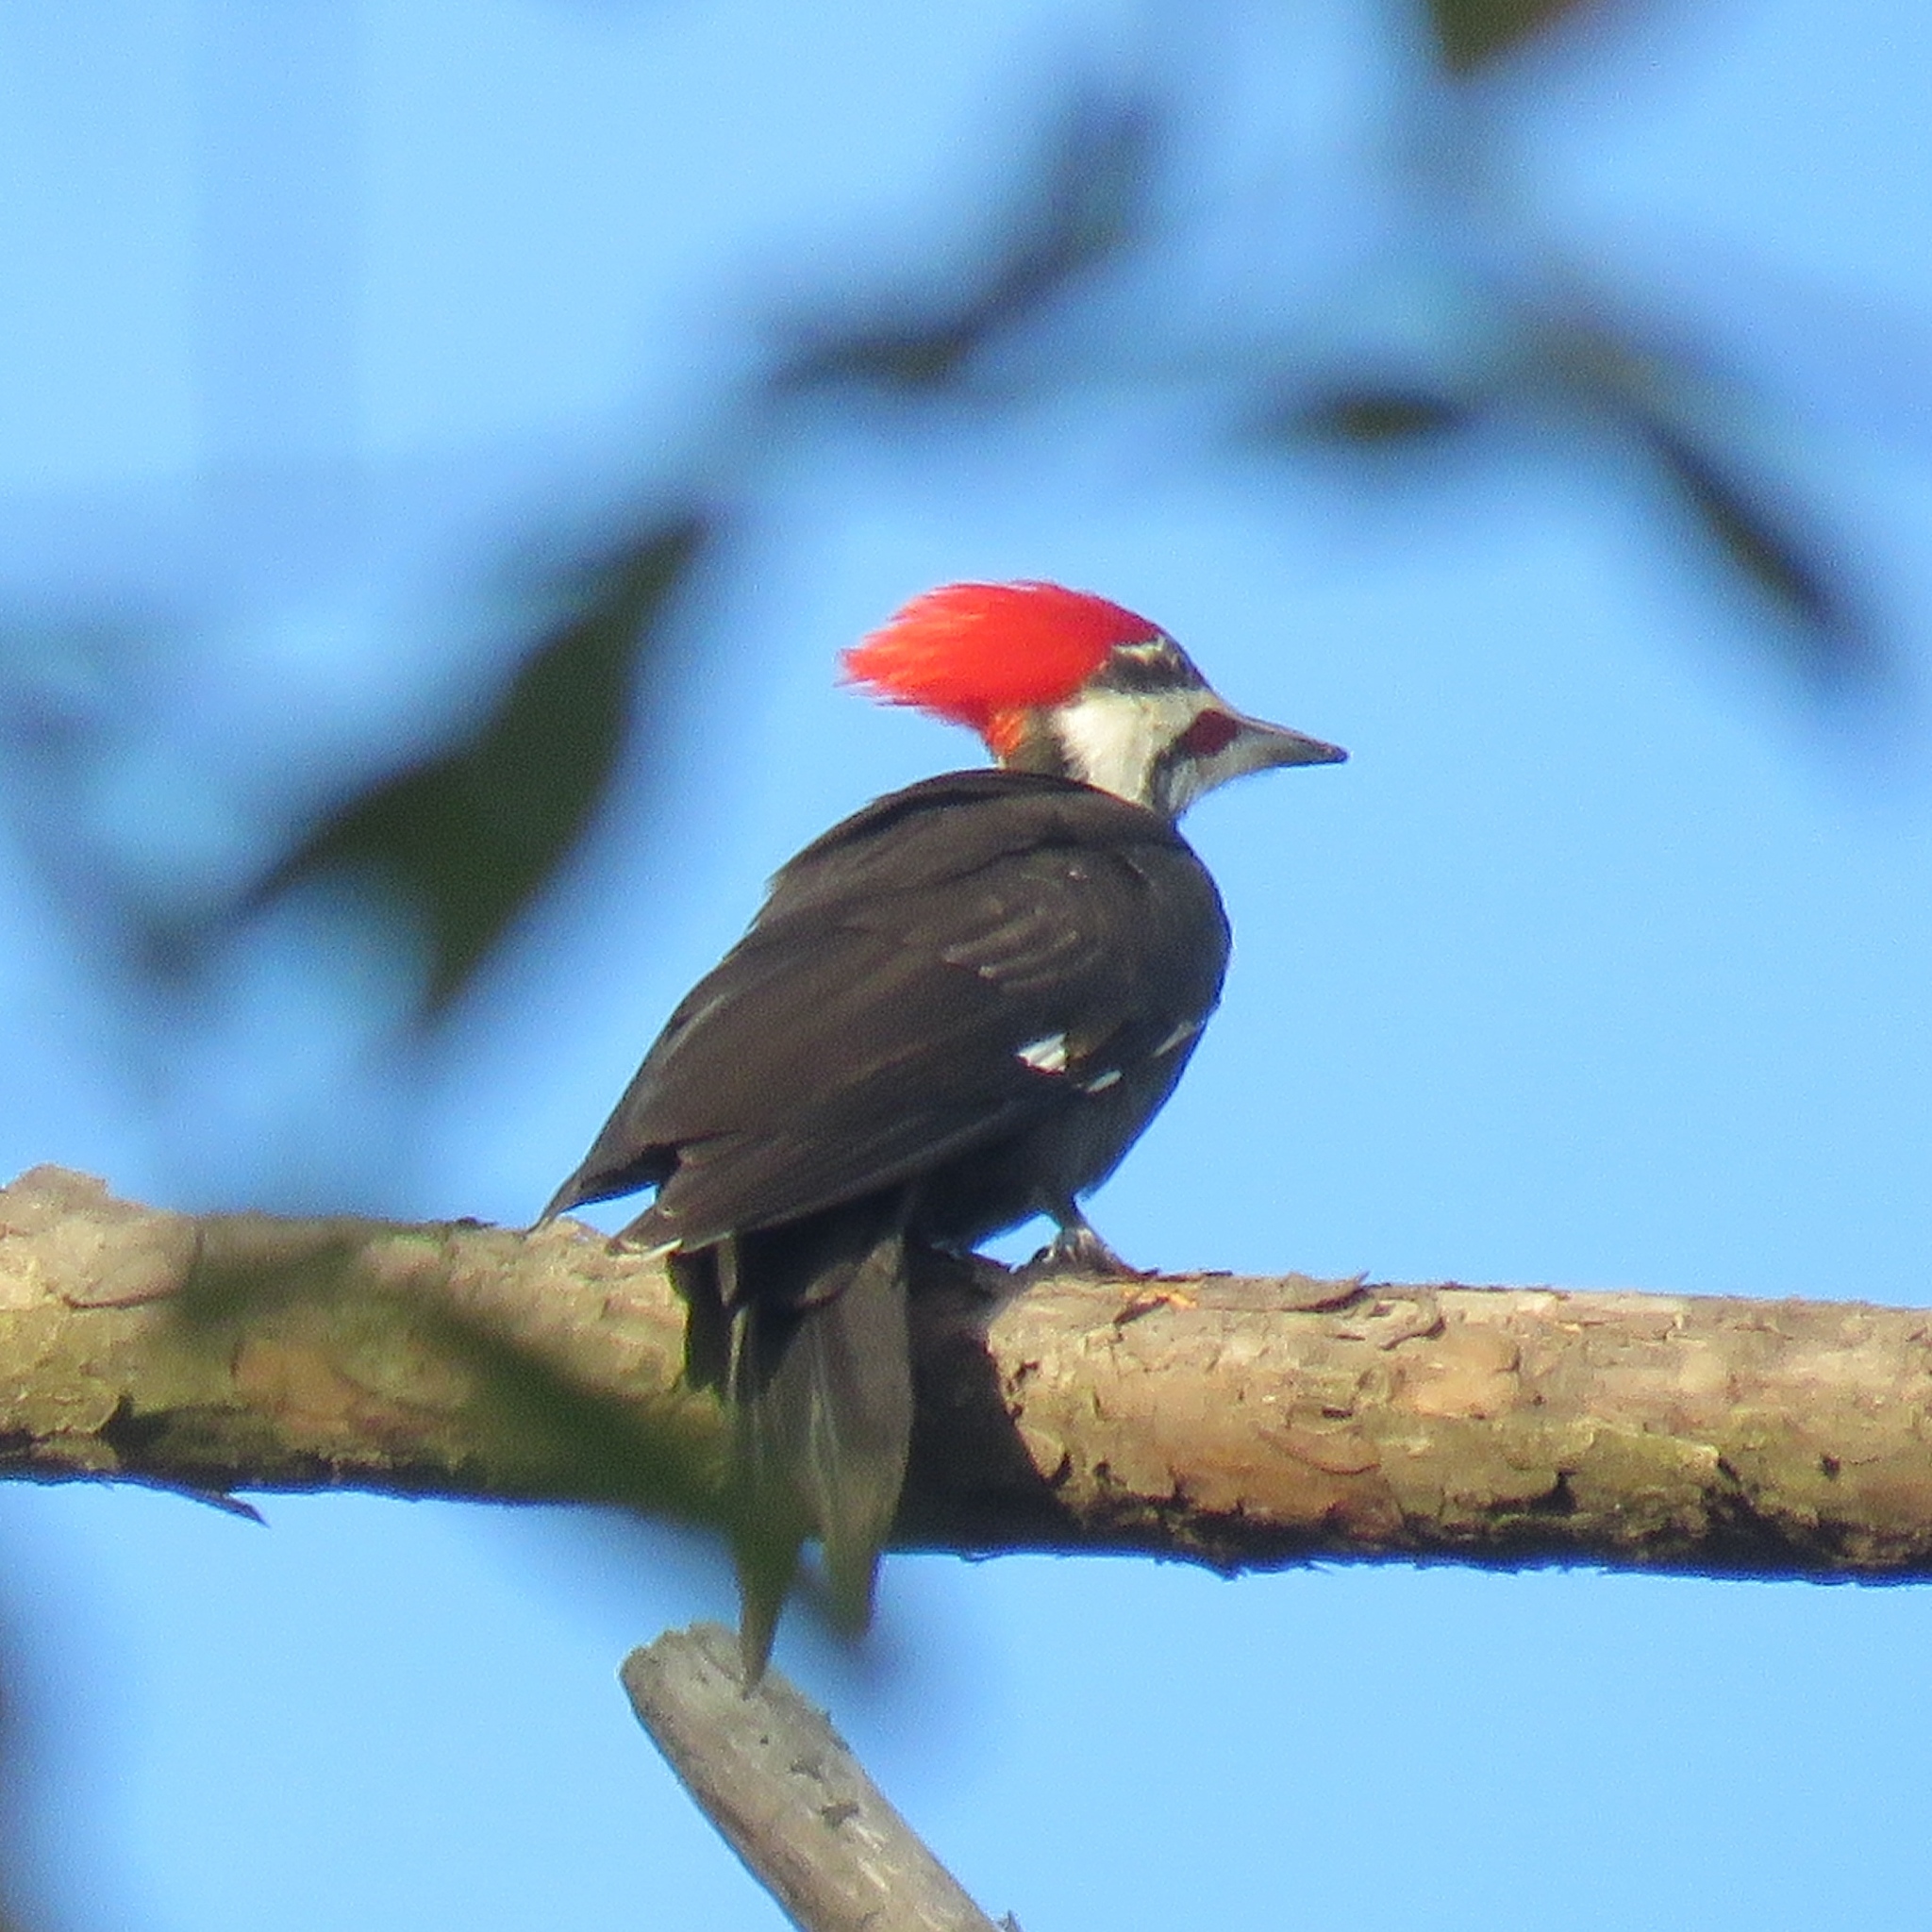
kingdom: Animalia
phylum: Chordata
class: Aves
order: Piciformes
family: Picidae
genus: Dryocopus
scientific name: Dryocopus pileatus
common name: Pileated woodpecker
